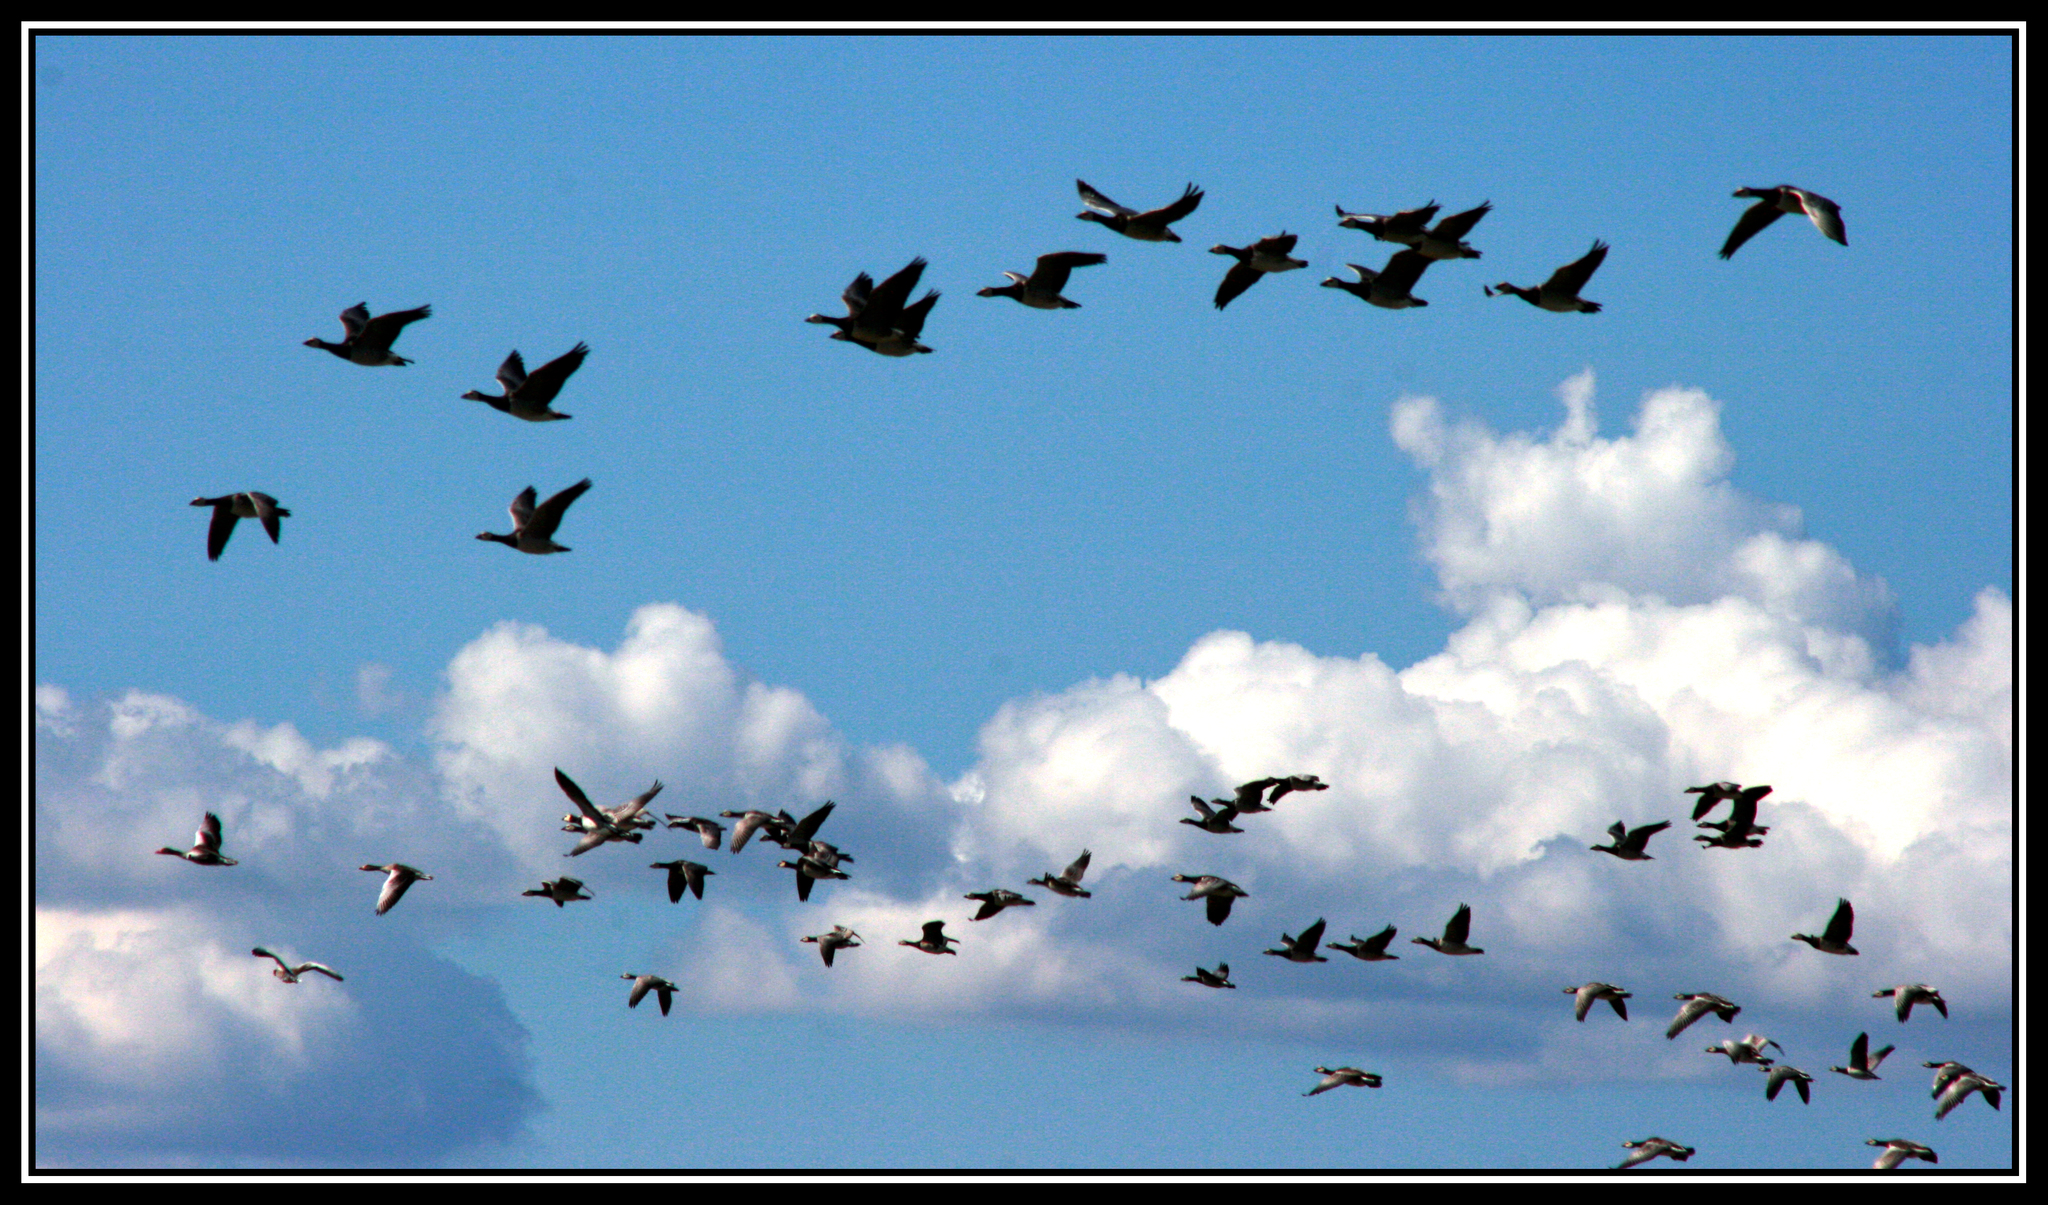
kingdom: Animalia
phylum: Chordata
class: Aves
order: Anseriformes
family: Anatidae
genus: Branta
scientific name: Branta leucopsis
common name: Barnacle goose
